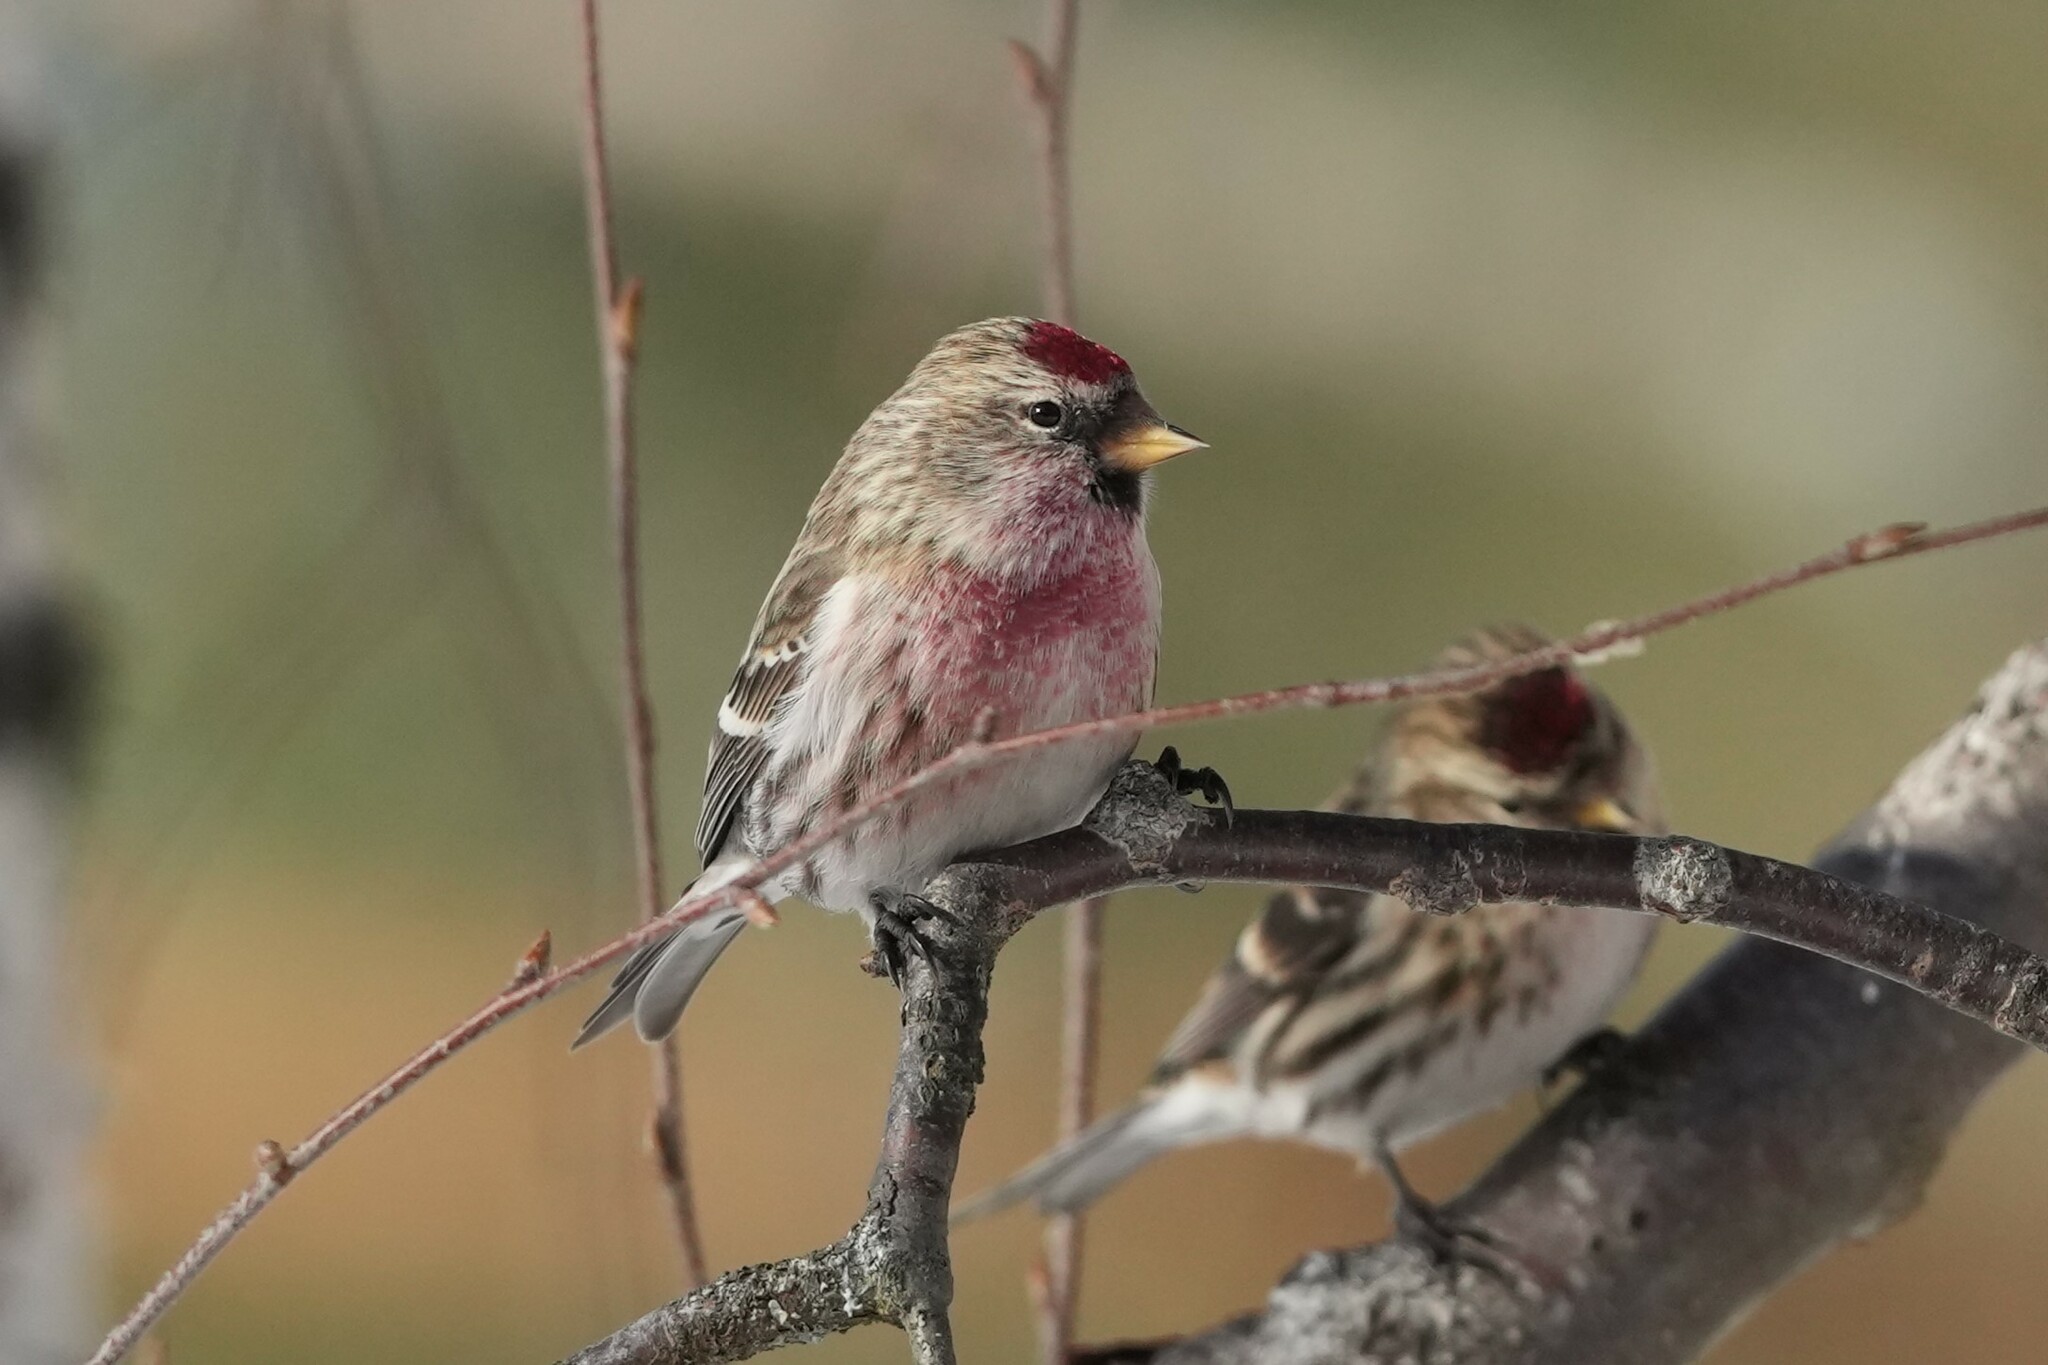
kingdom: Animalia
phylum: Chordata
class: Aves
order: Passeriformes
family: Fringillidae
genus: Acanthis
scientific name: Acanthis flammea
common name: Common redpoll
